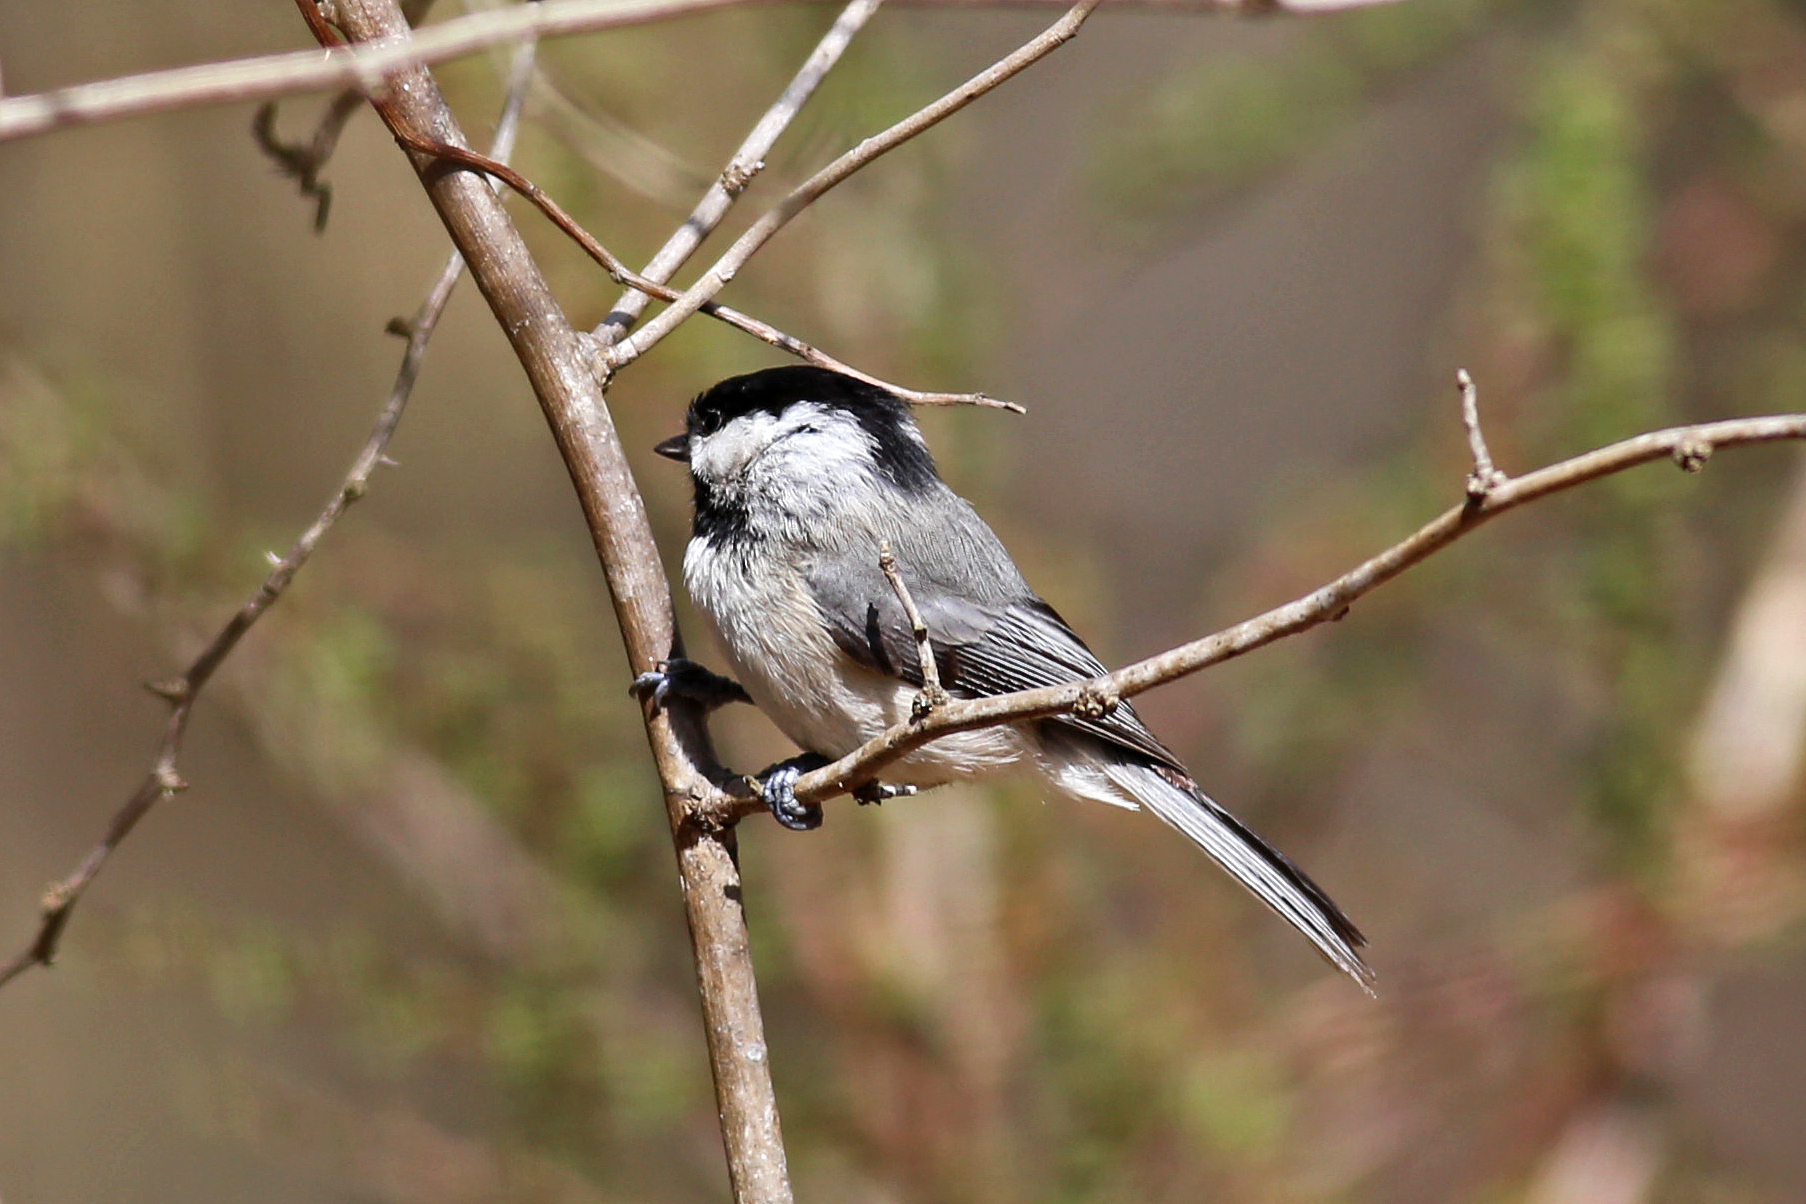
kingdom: Animalia
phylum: Chordata
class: Aves
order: Passeriformes
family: Paridae
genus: Poecile
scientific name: Poecile carolinensis
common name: Carolina chickadee
